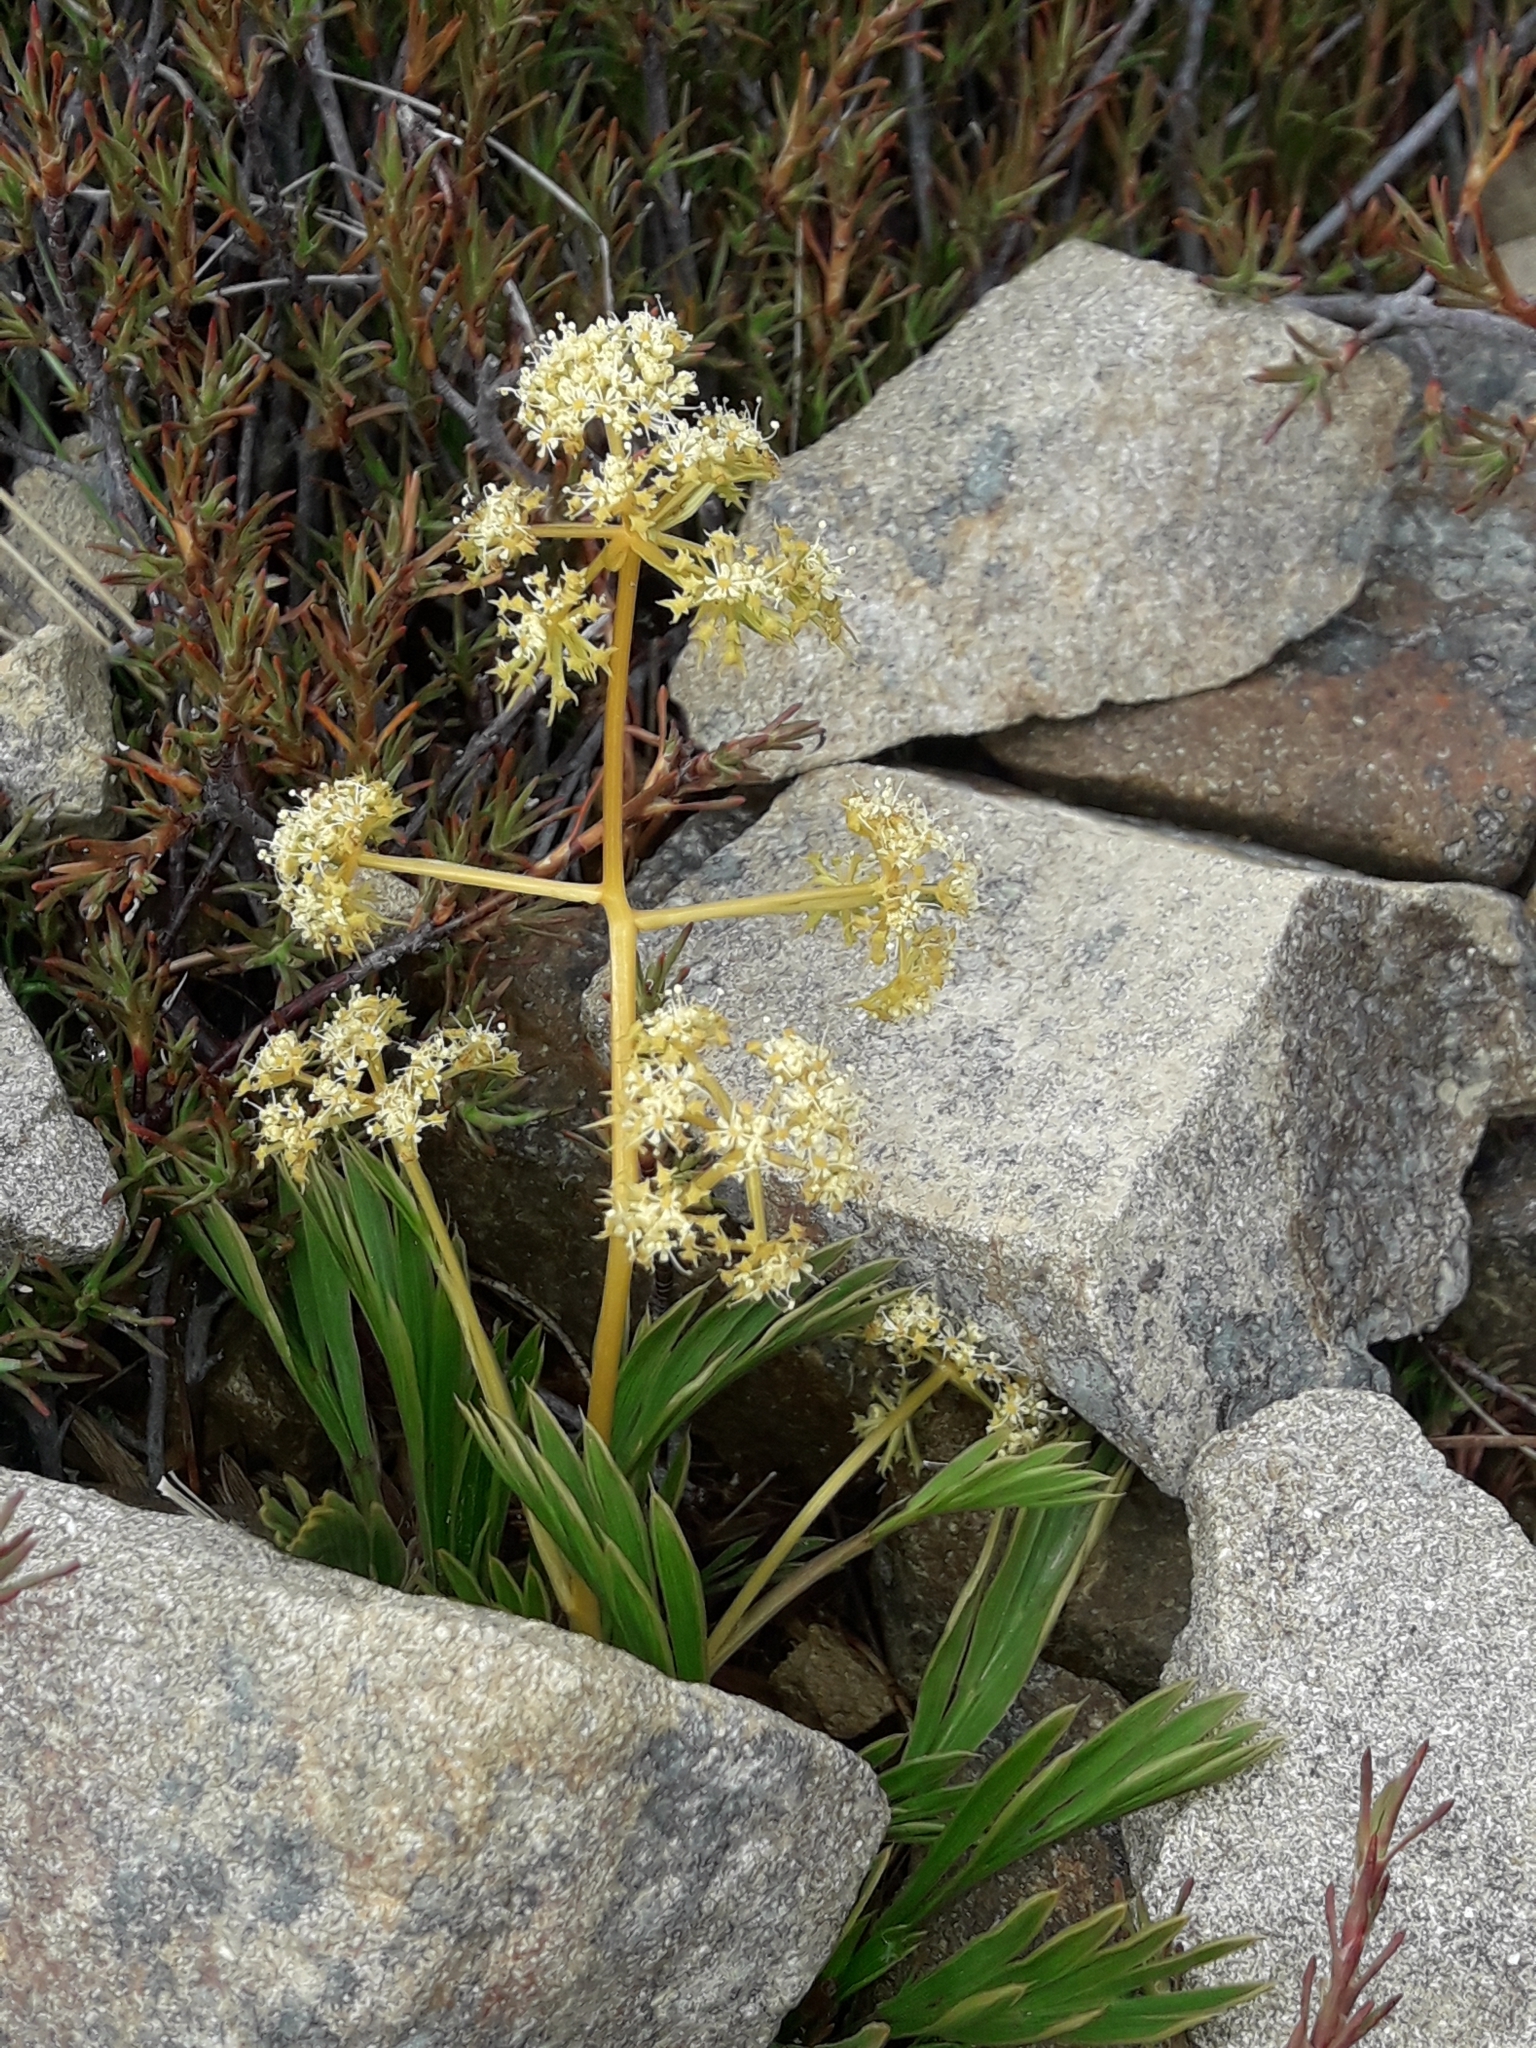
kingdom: Plantae
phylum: Tracheophyta
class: Magnoliopsida
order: Apiales
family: Apiaceae
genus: Aciphylla
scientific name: Aciphylla monroi
